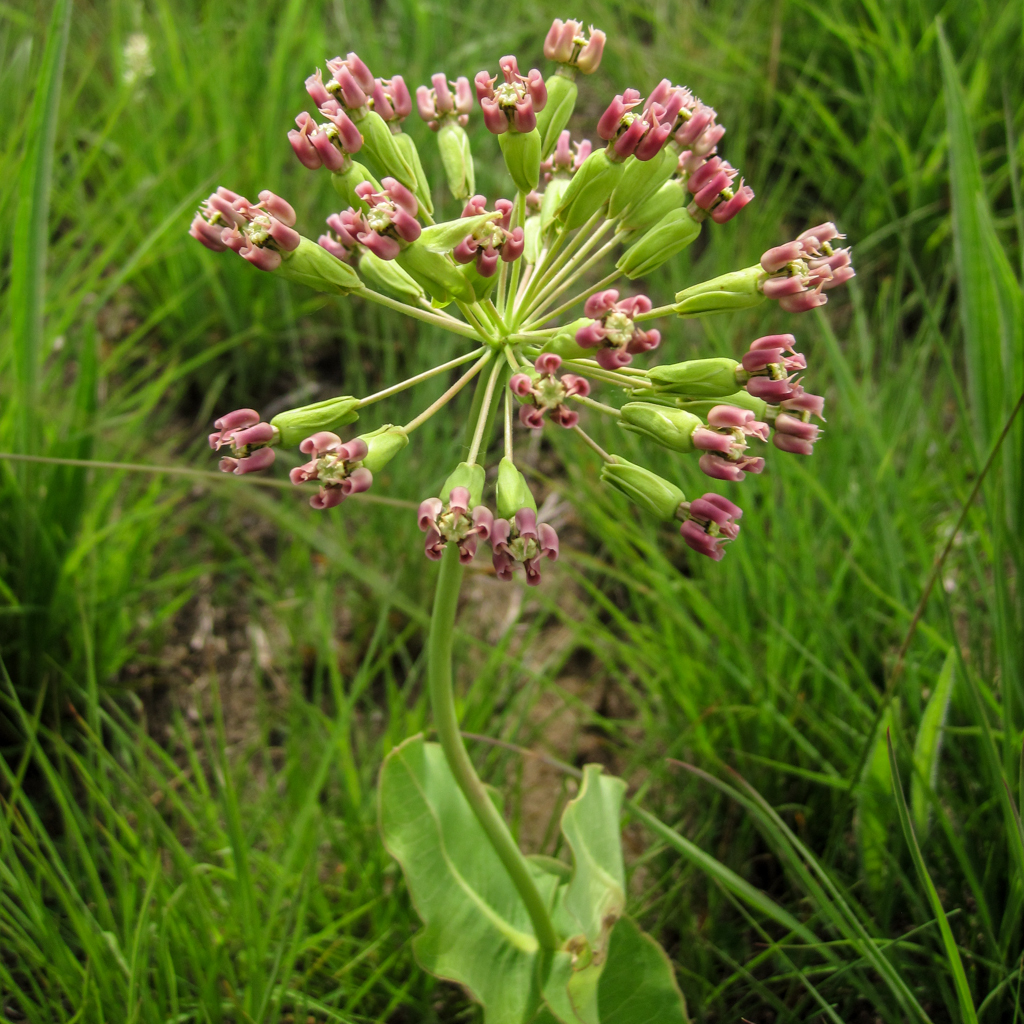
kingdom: Plantae
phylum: Tracheophyta
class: Magnoliopsida
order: Gentianales
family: Apocynaceae
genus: Asclepias
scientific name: Asclepias amplexicaulis
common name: Blunt-leaf milkweed
